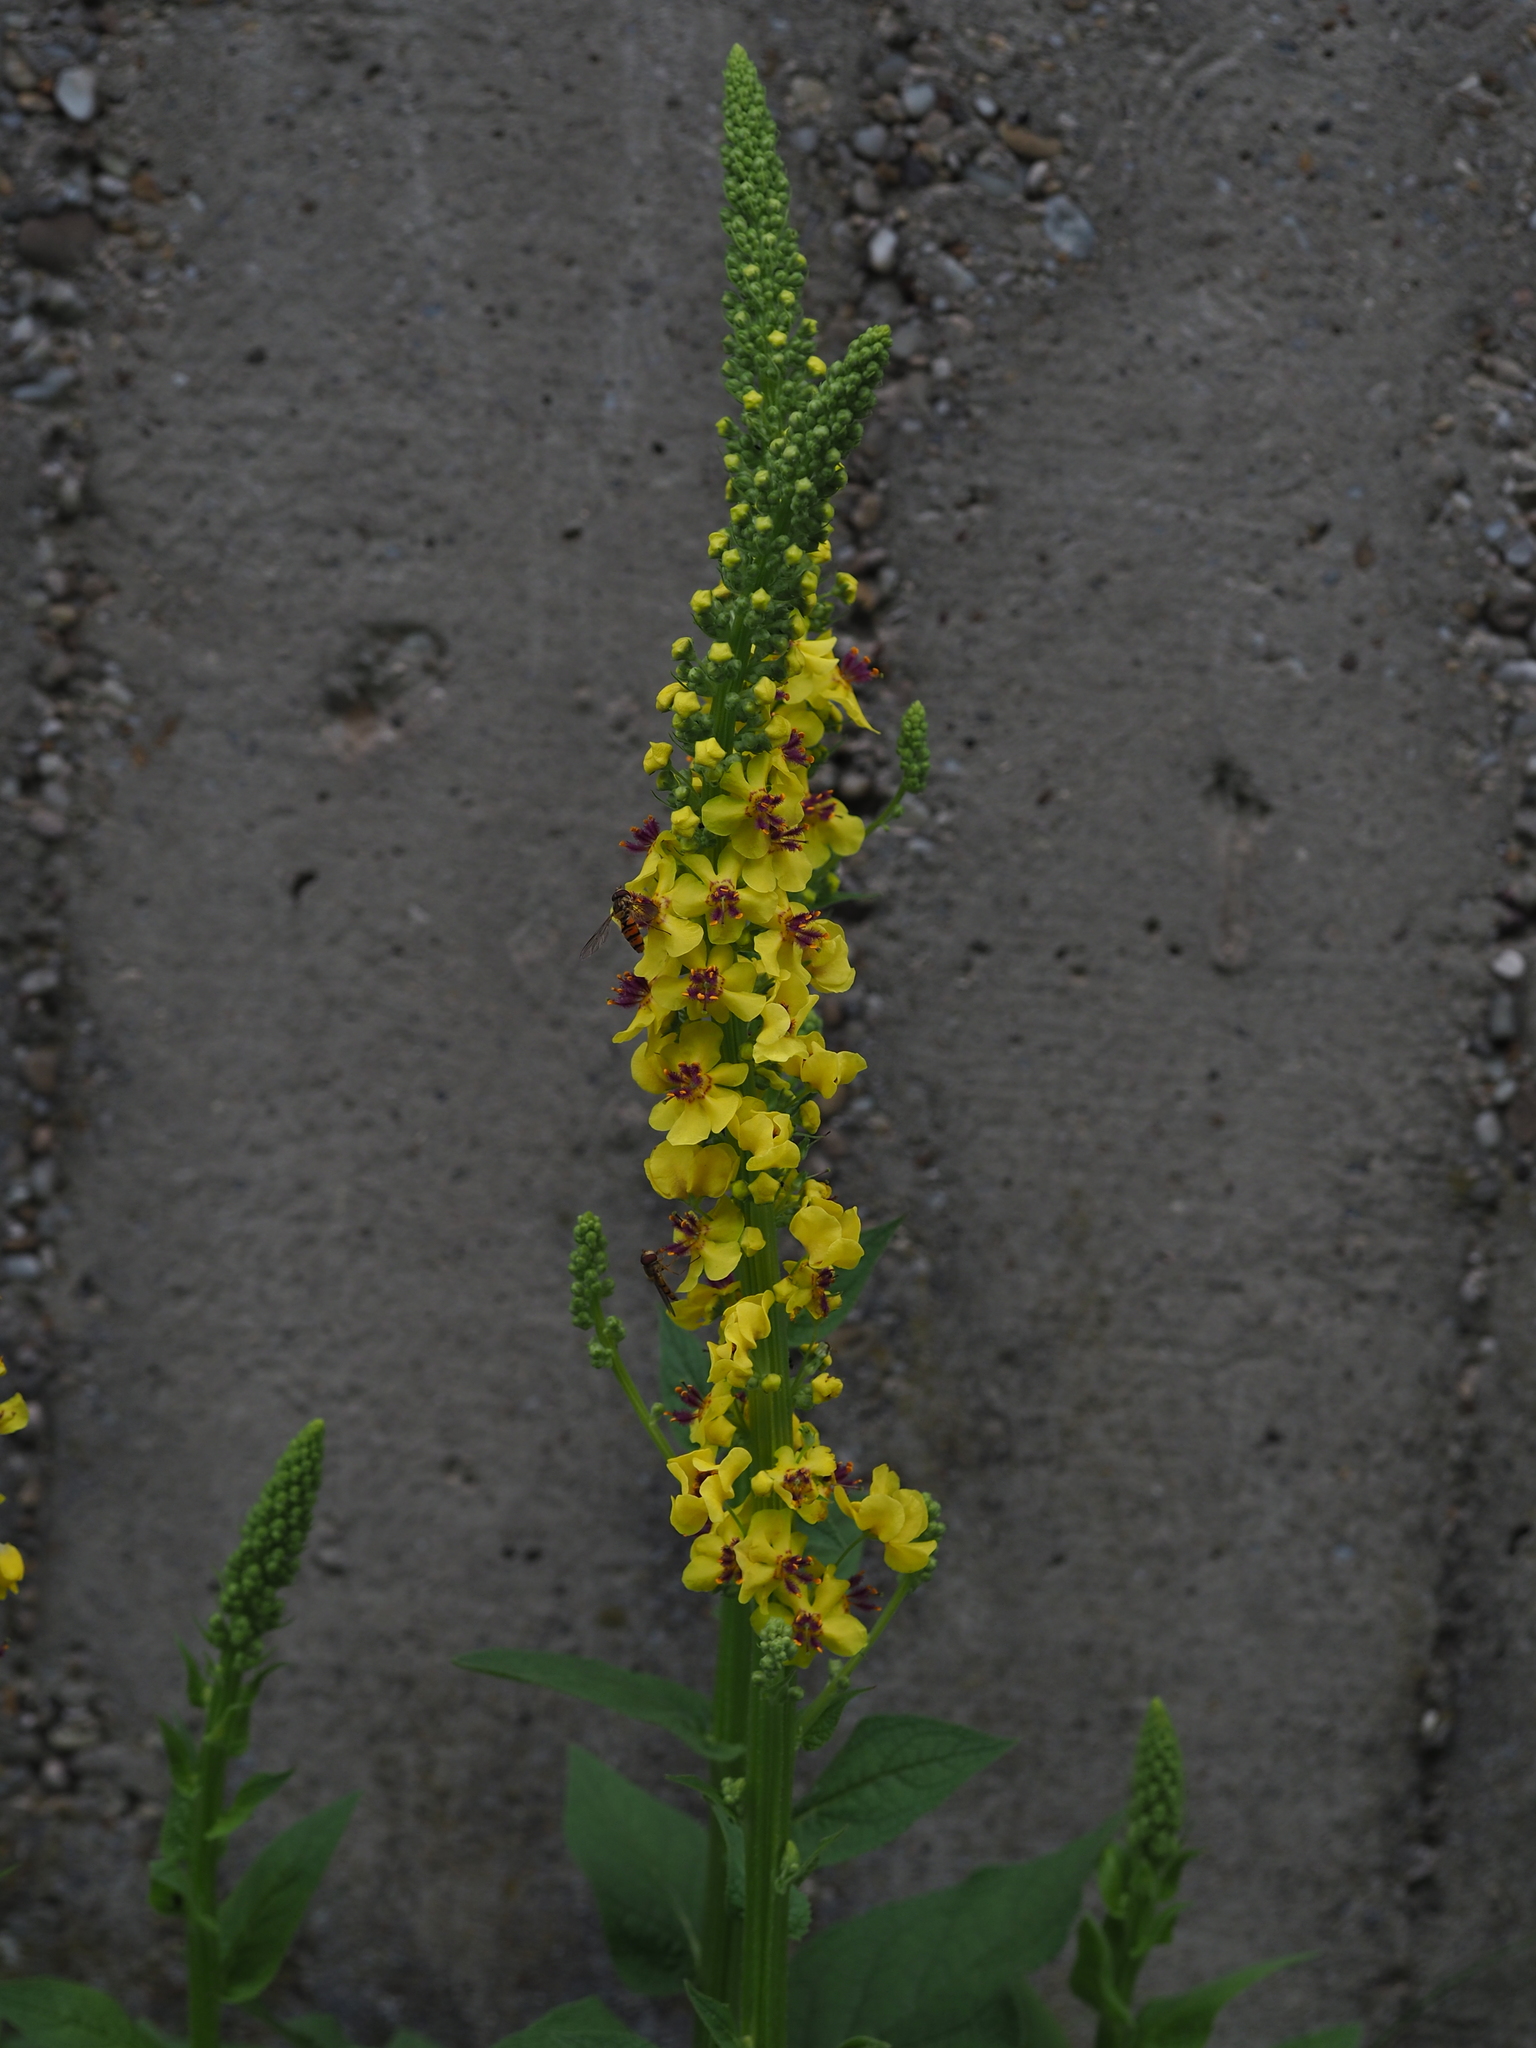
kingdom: Plantae
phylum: Tracheophyta
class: Magnoliopsida
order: Lamiales
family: Scrophulariaceae
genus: Verbascum
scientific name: Verbascum nigrum
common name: Dark mullein
